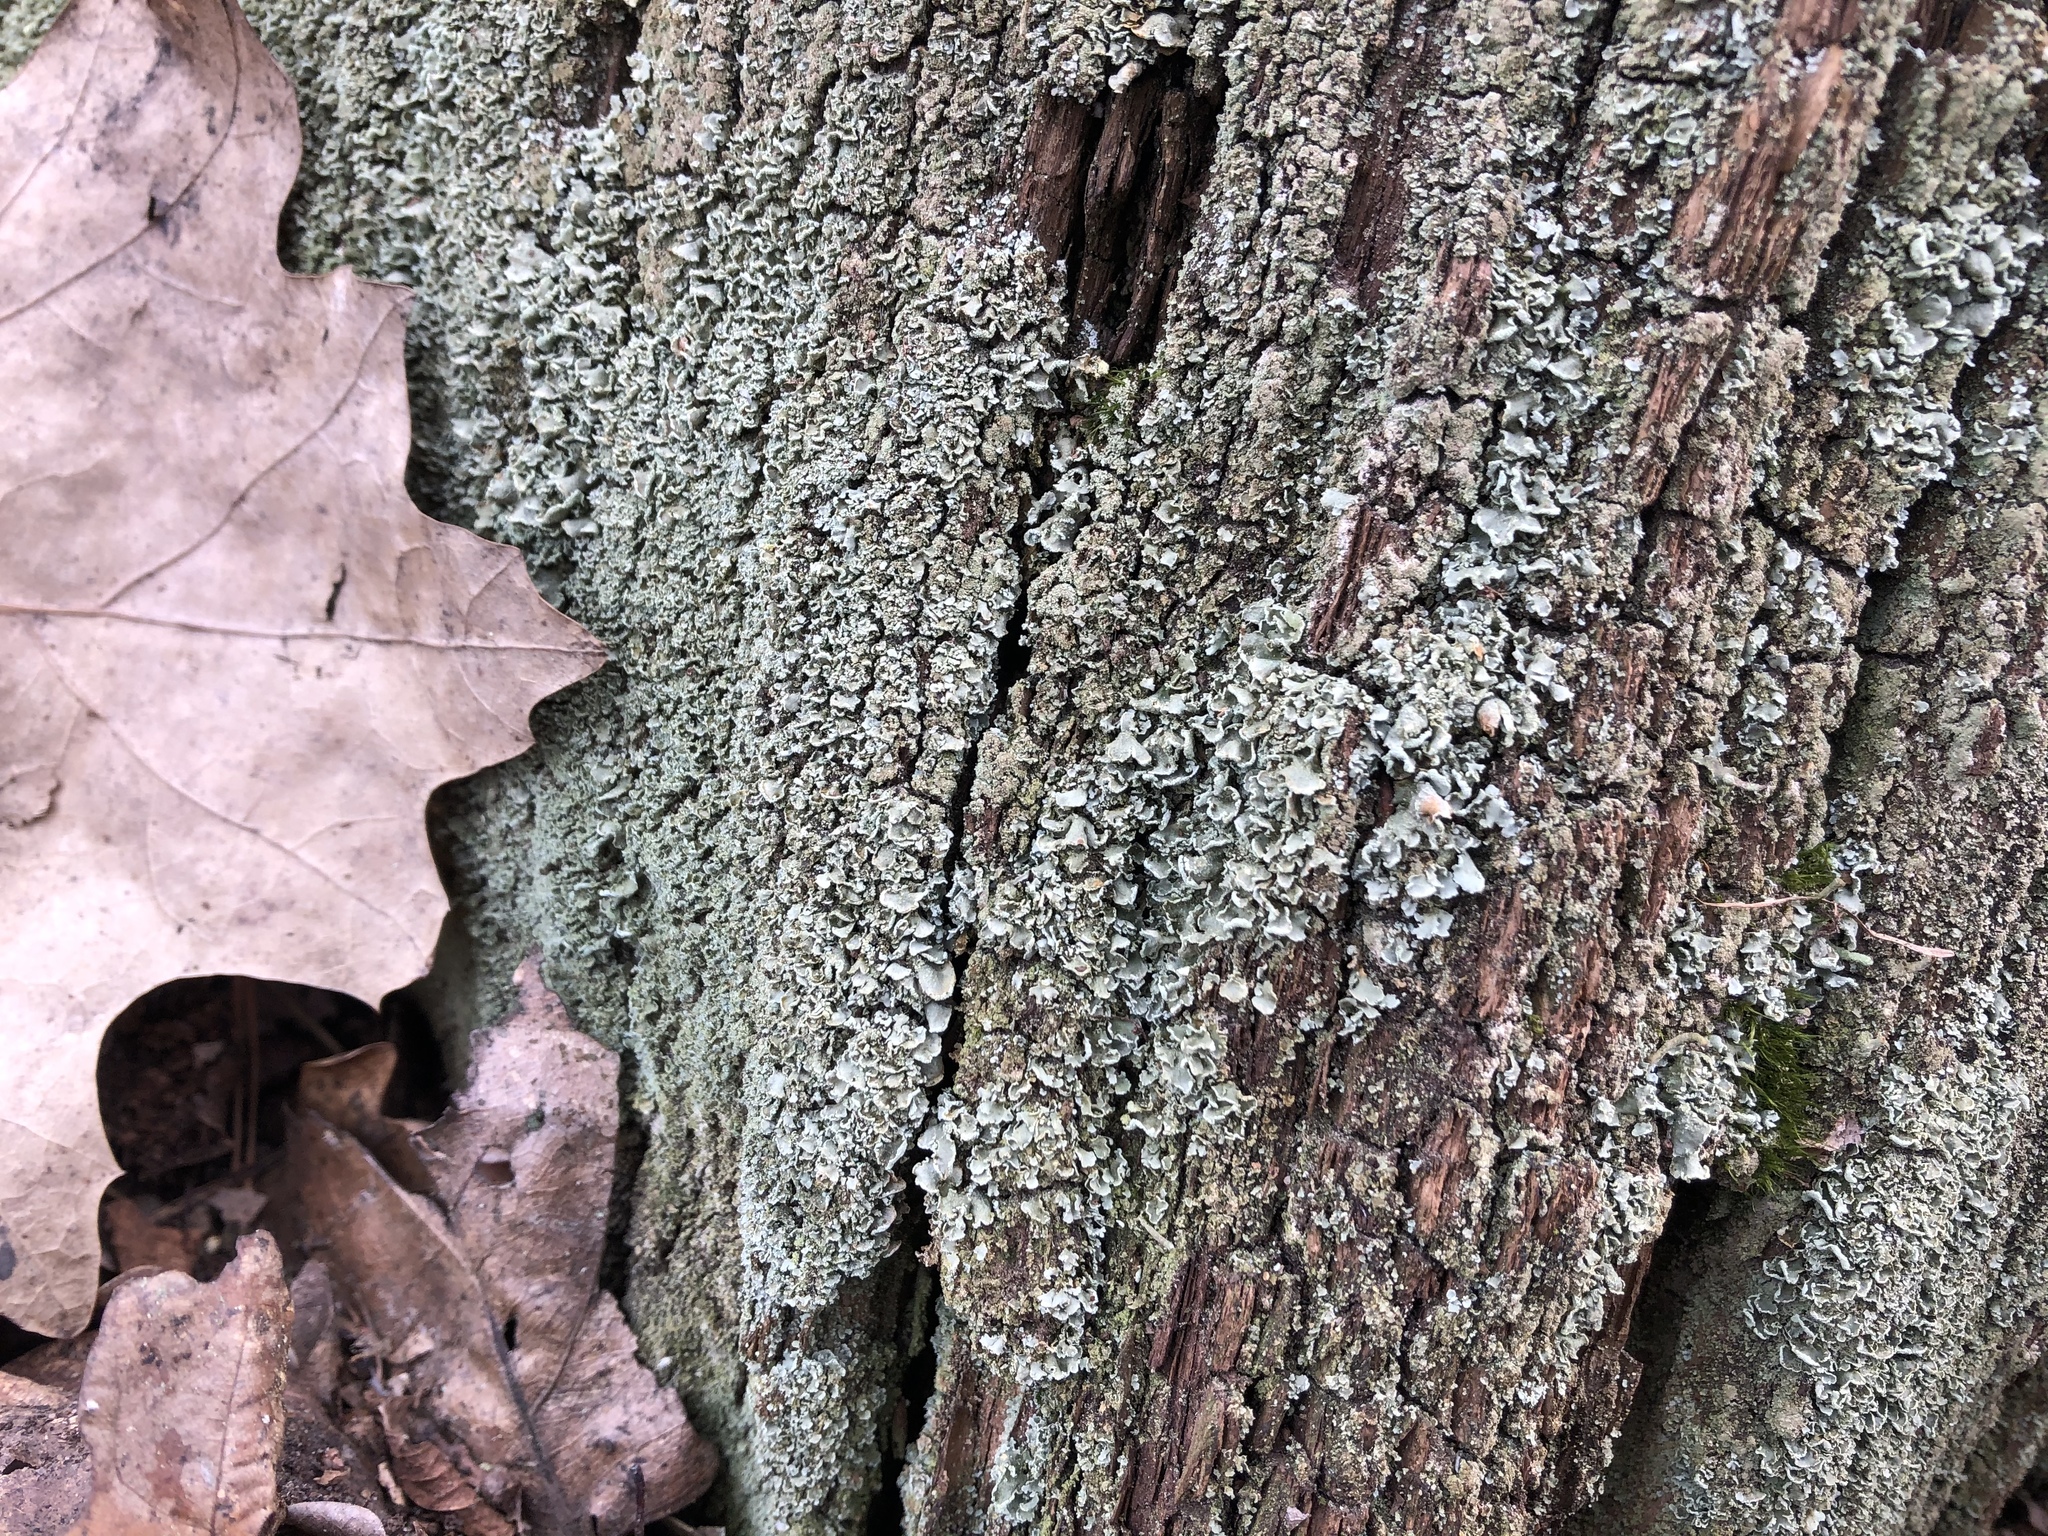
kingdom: Fungi
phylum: Ascomycota
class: Lecanoromycetes
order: Lecanorales
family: Cladoniaceae
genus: Cladonia
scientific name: Cladonia digitata
